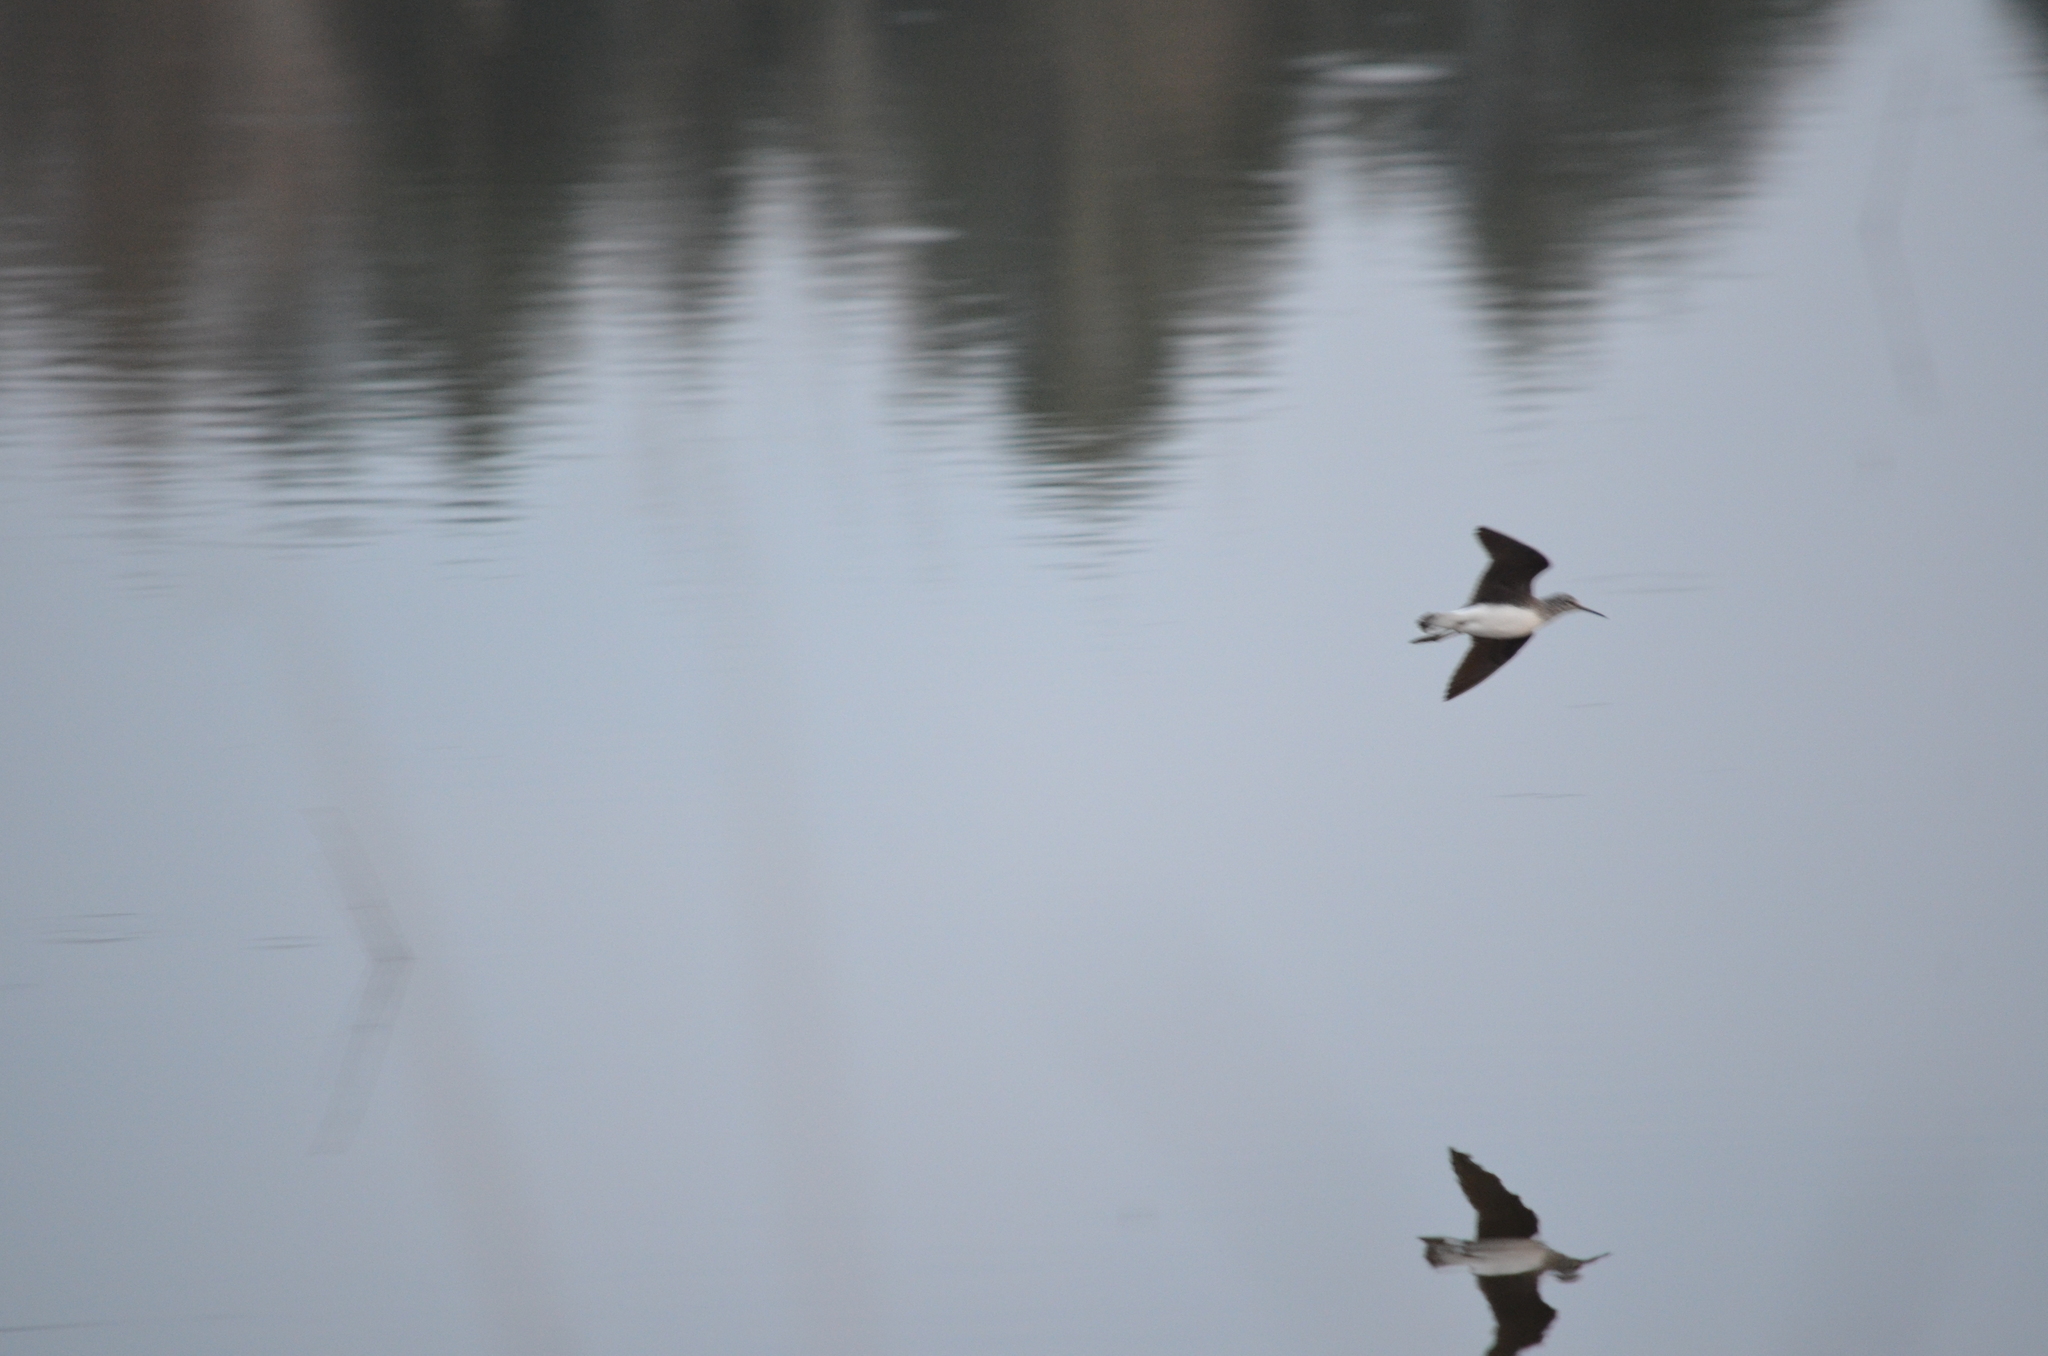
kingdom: Animalia
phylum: Chordata
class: Aves
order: Charadriiformes
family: Scolopacidae
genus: Tringa
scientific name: Tringa ochropus
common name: Green sandpiper
